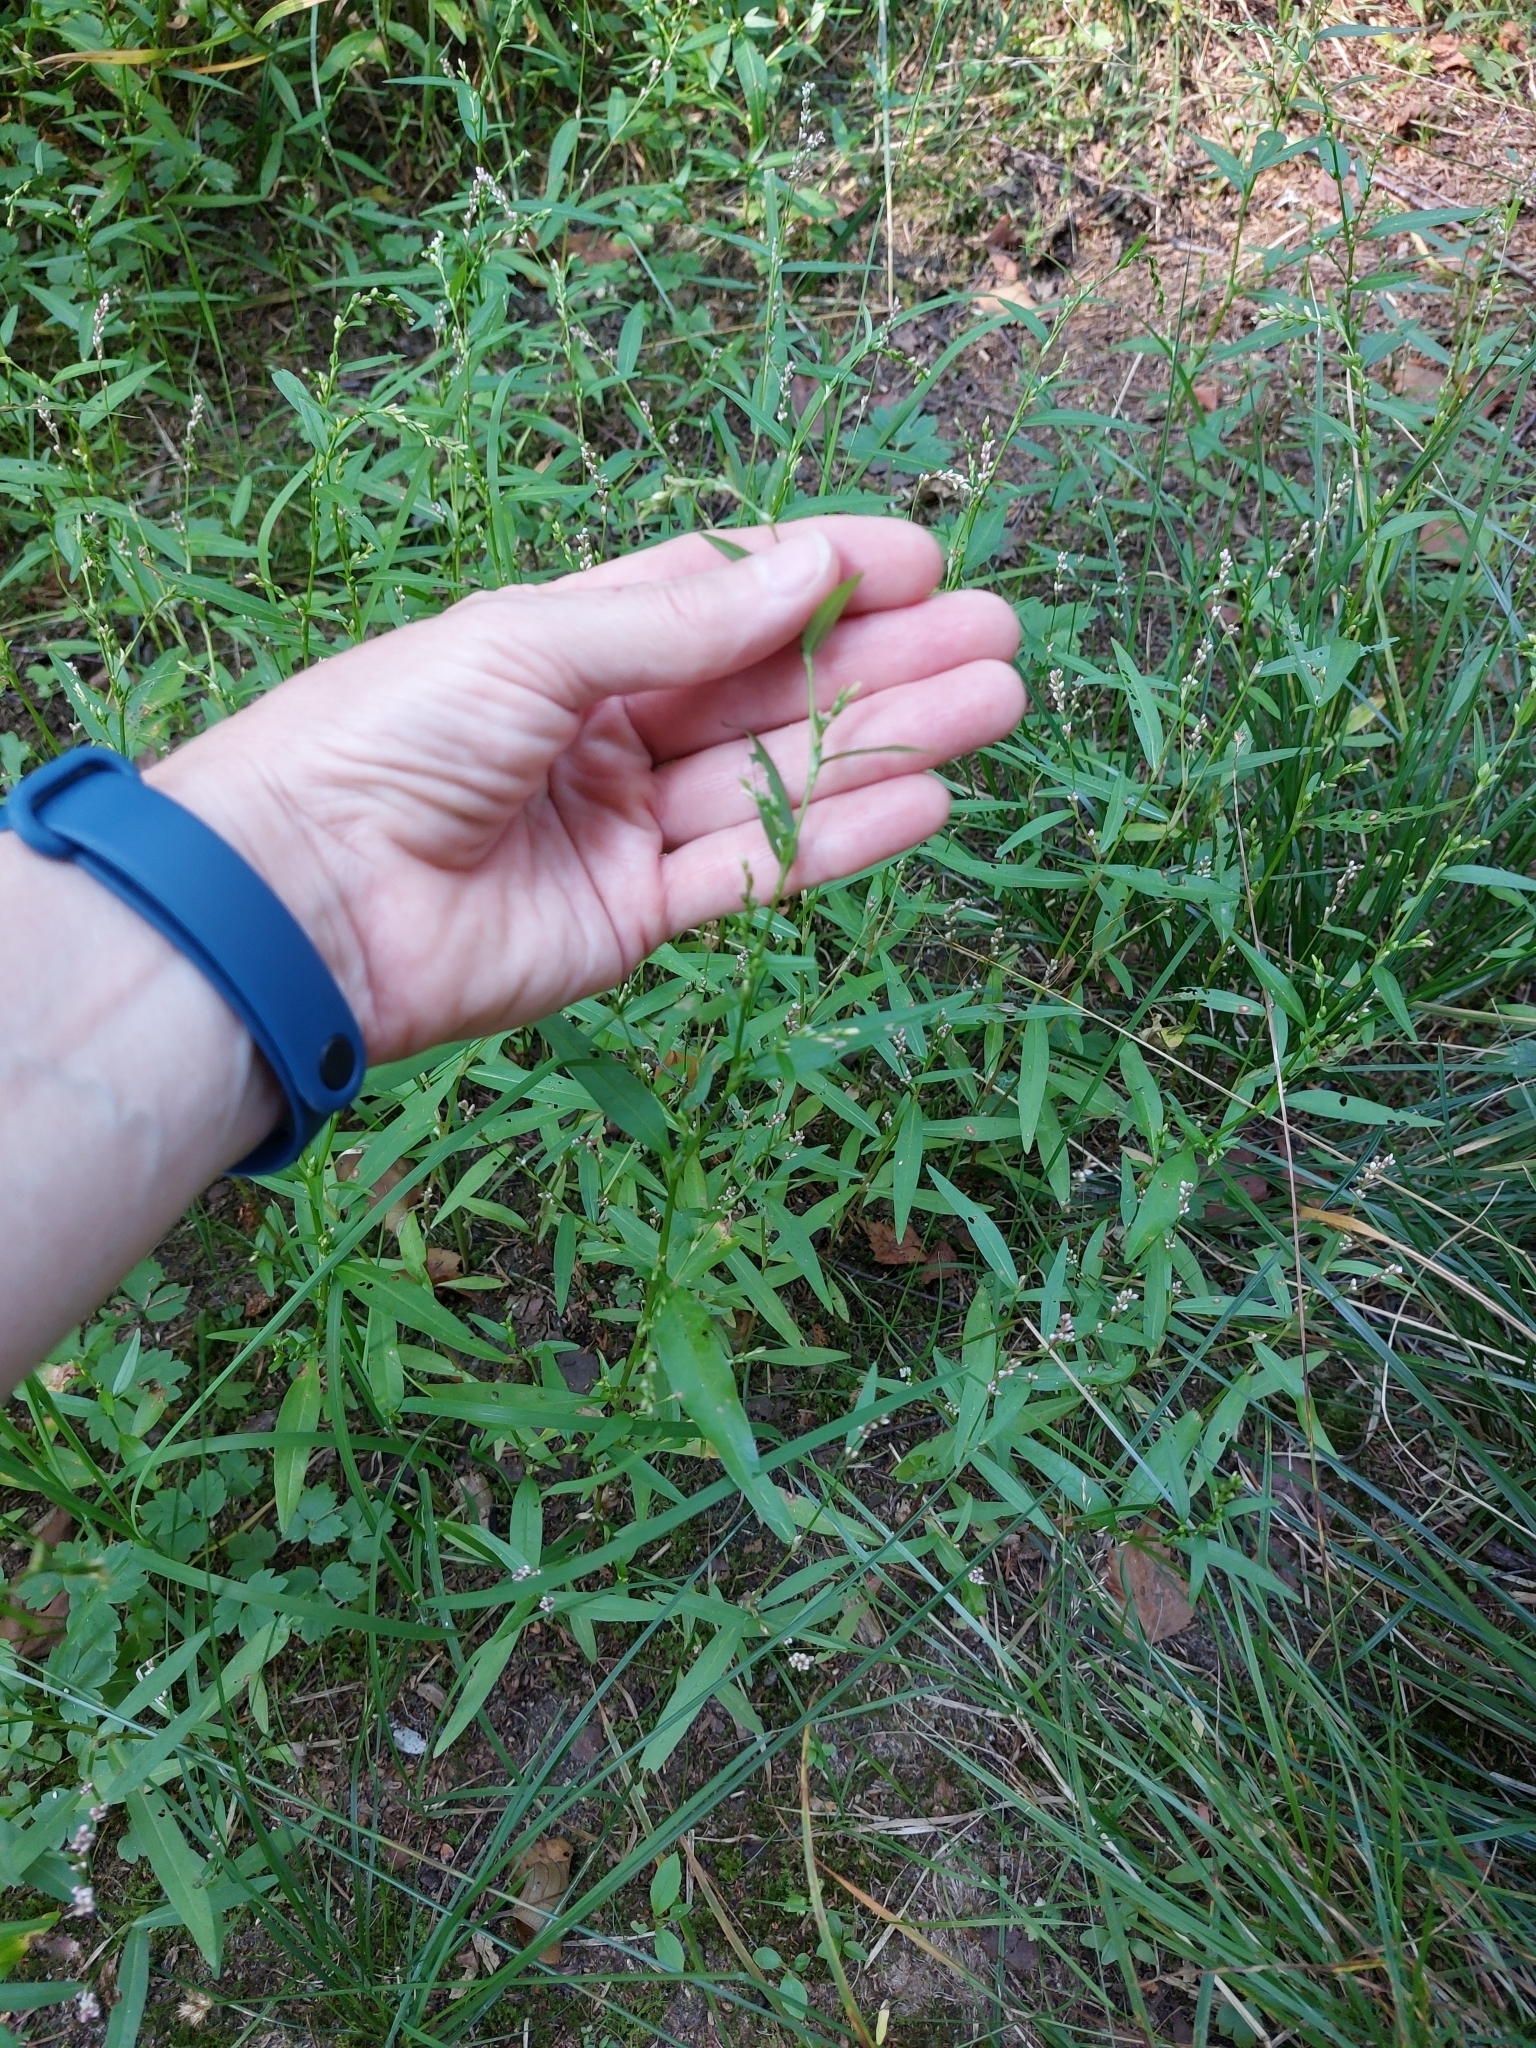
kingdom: Plantae
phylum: Tracheophyta
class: Magnoliopsida
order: Caryophyllales
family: Polygonaceae
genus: Persicaria
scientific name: Persicaria hydropiper
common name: Water-pepper
